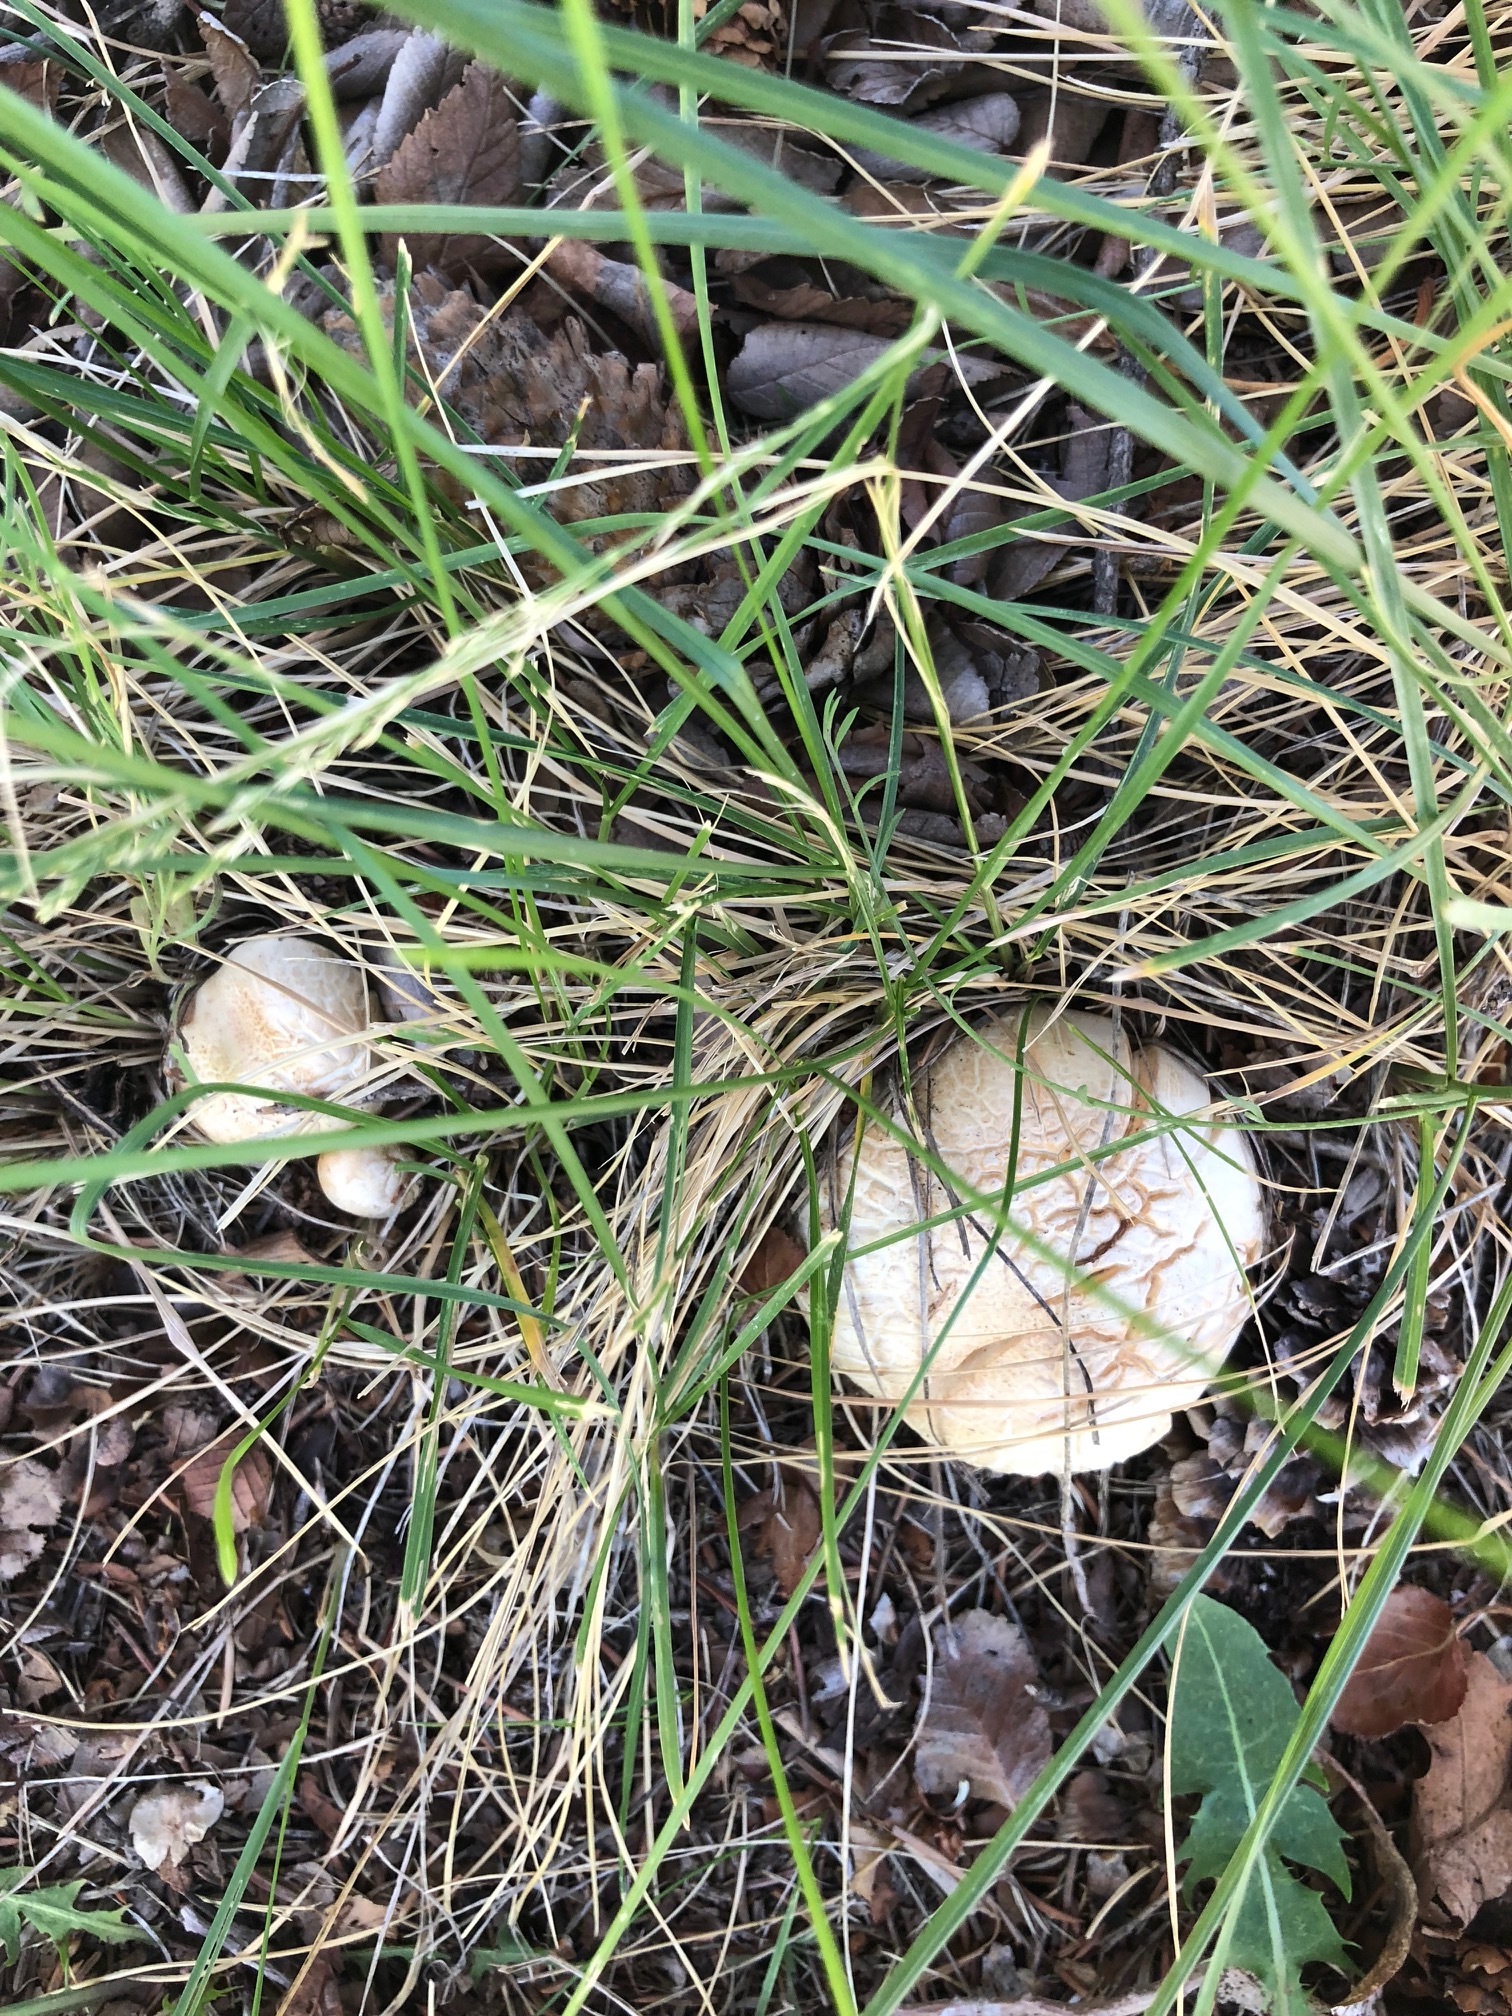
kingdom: Fungi
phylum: Basidiomycota
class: Agaricomycetes
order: Agaricales
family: Tricholomataceae
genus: Leucopaxillus
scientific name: Leucopaxillus paradoxus
